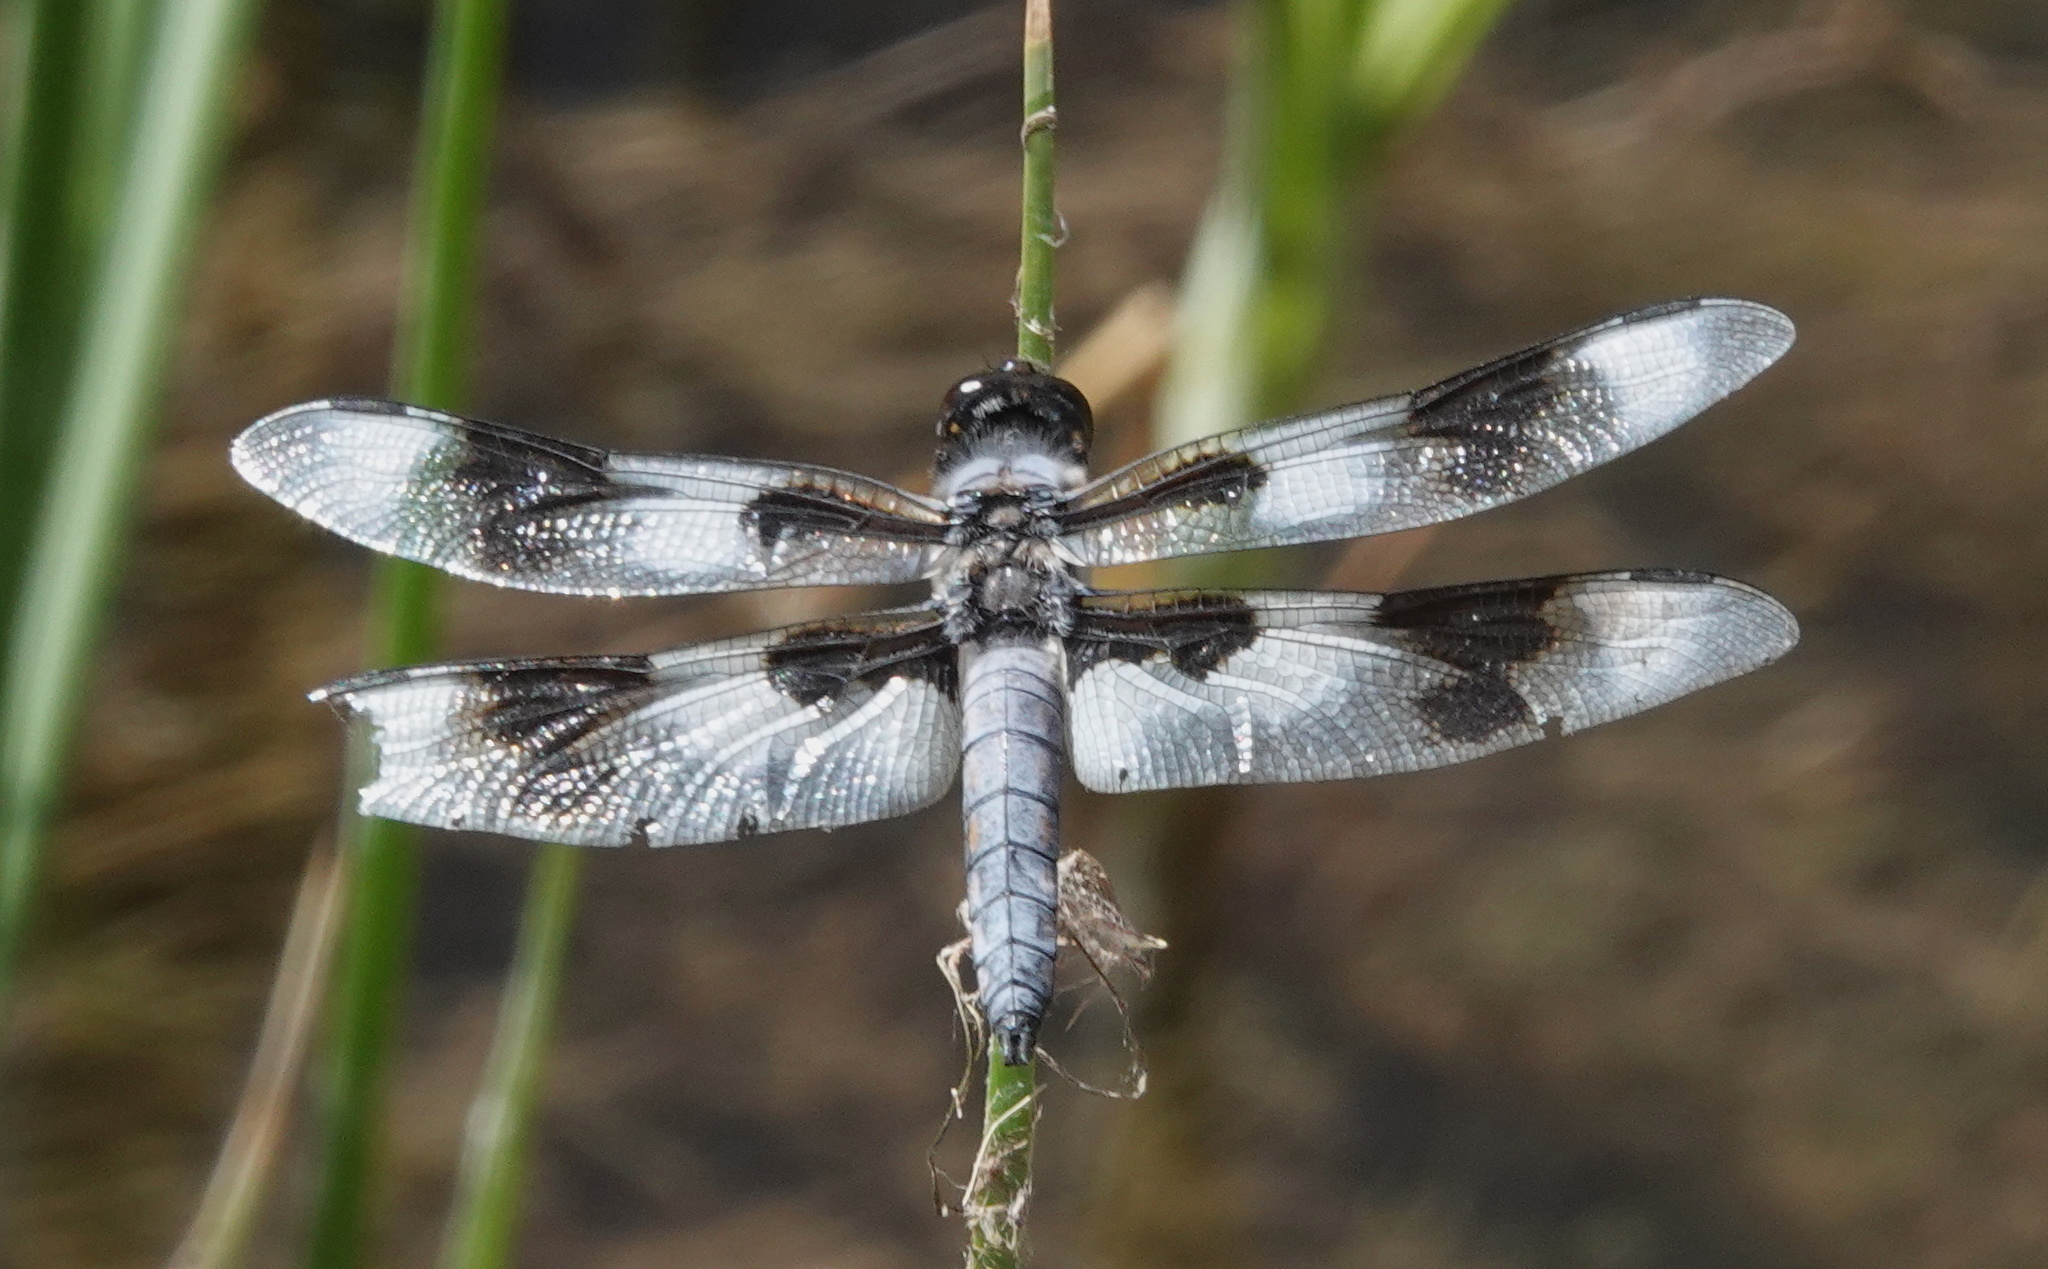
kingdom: Animalia
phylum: Arthropoda
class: Insecta
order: Odonata
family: Libellulidae
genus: Libellula
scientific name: Libellula forensis
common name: Eight-spotted skimmer
